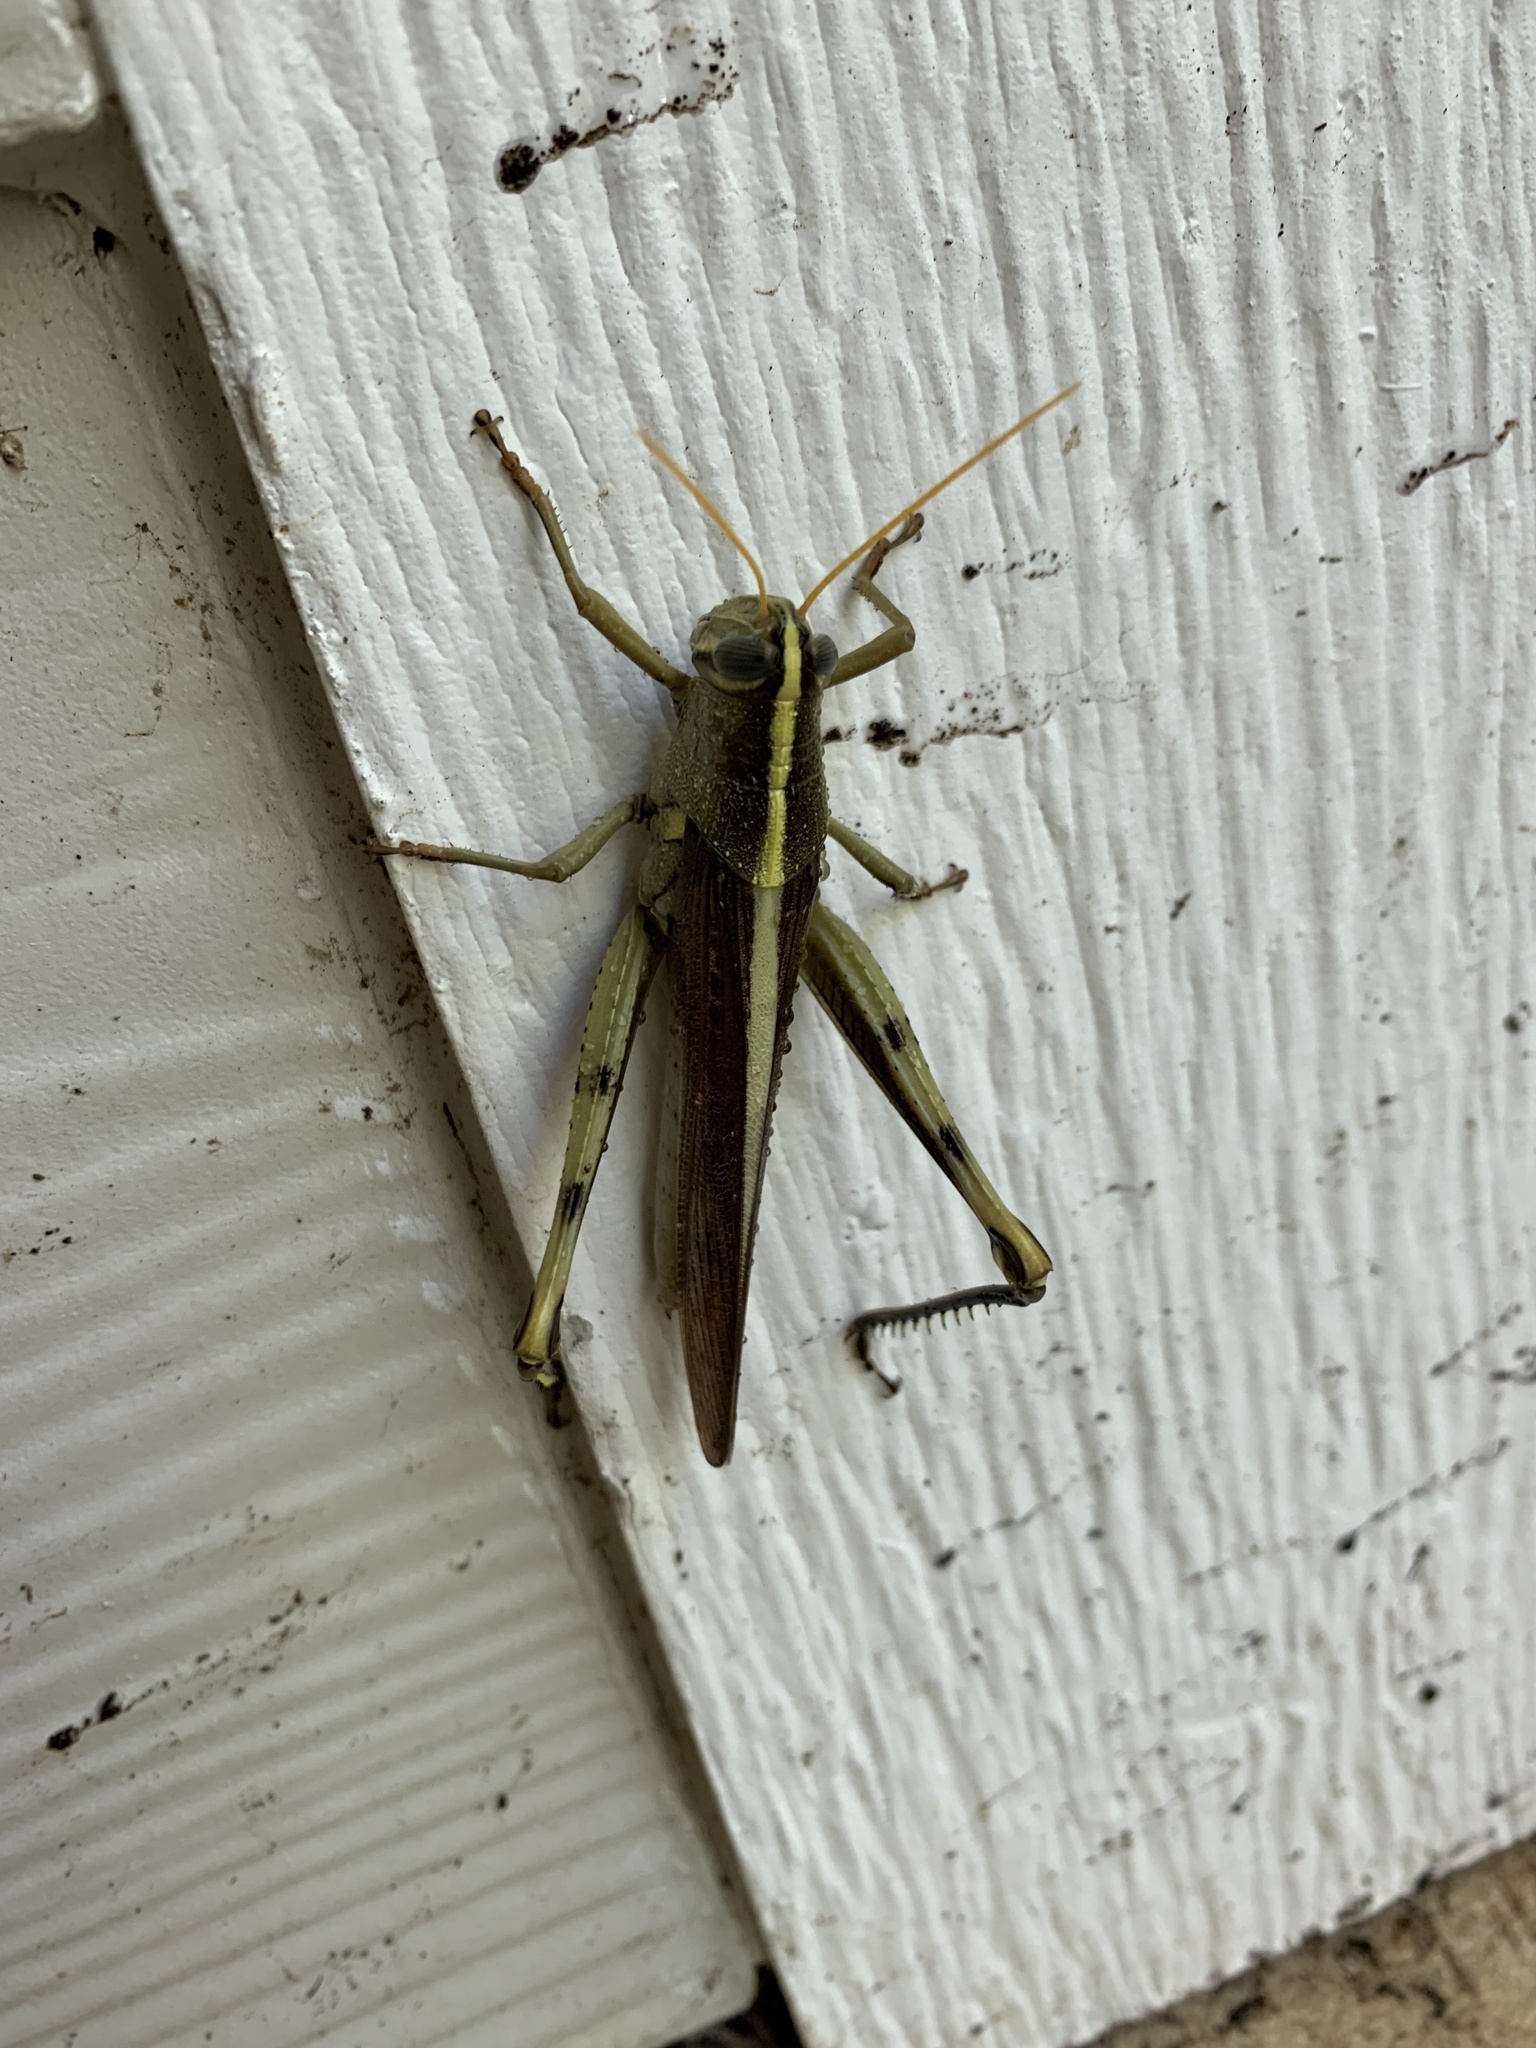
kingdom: Animalia
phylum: Arthropoda
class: Insecta
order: Orthoptera
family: Acrididae
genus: Schistocerca
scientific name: Schistocerca obscura
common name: Obscure bird grasshopper
